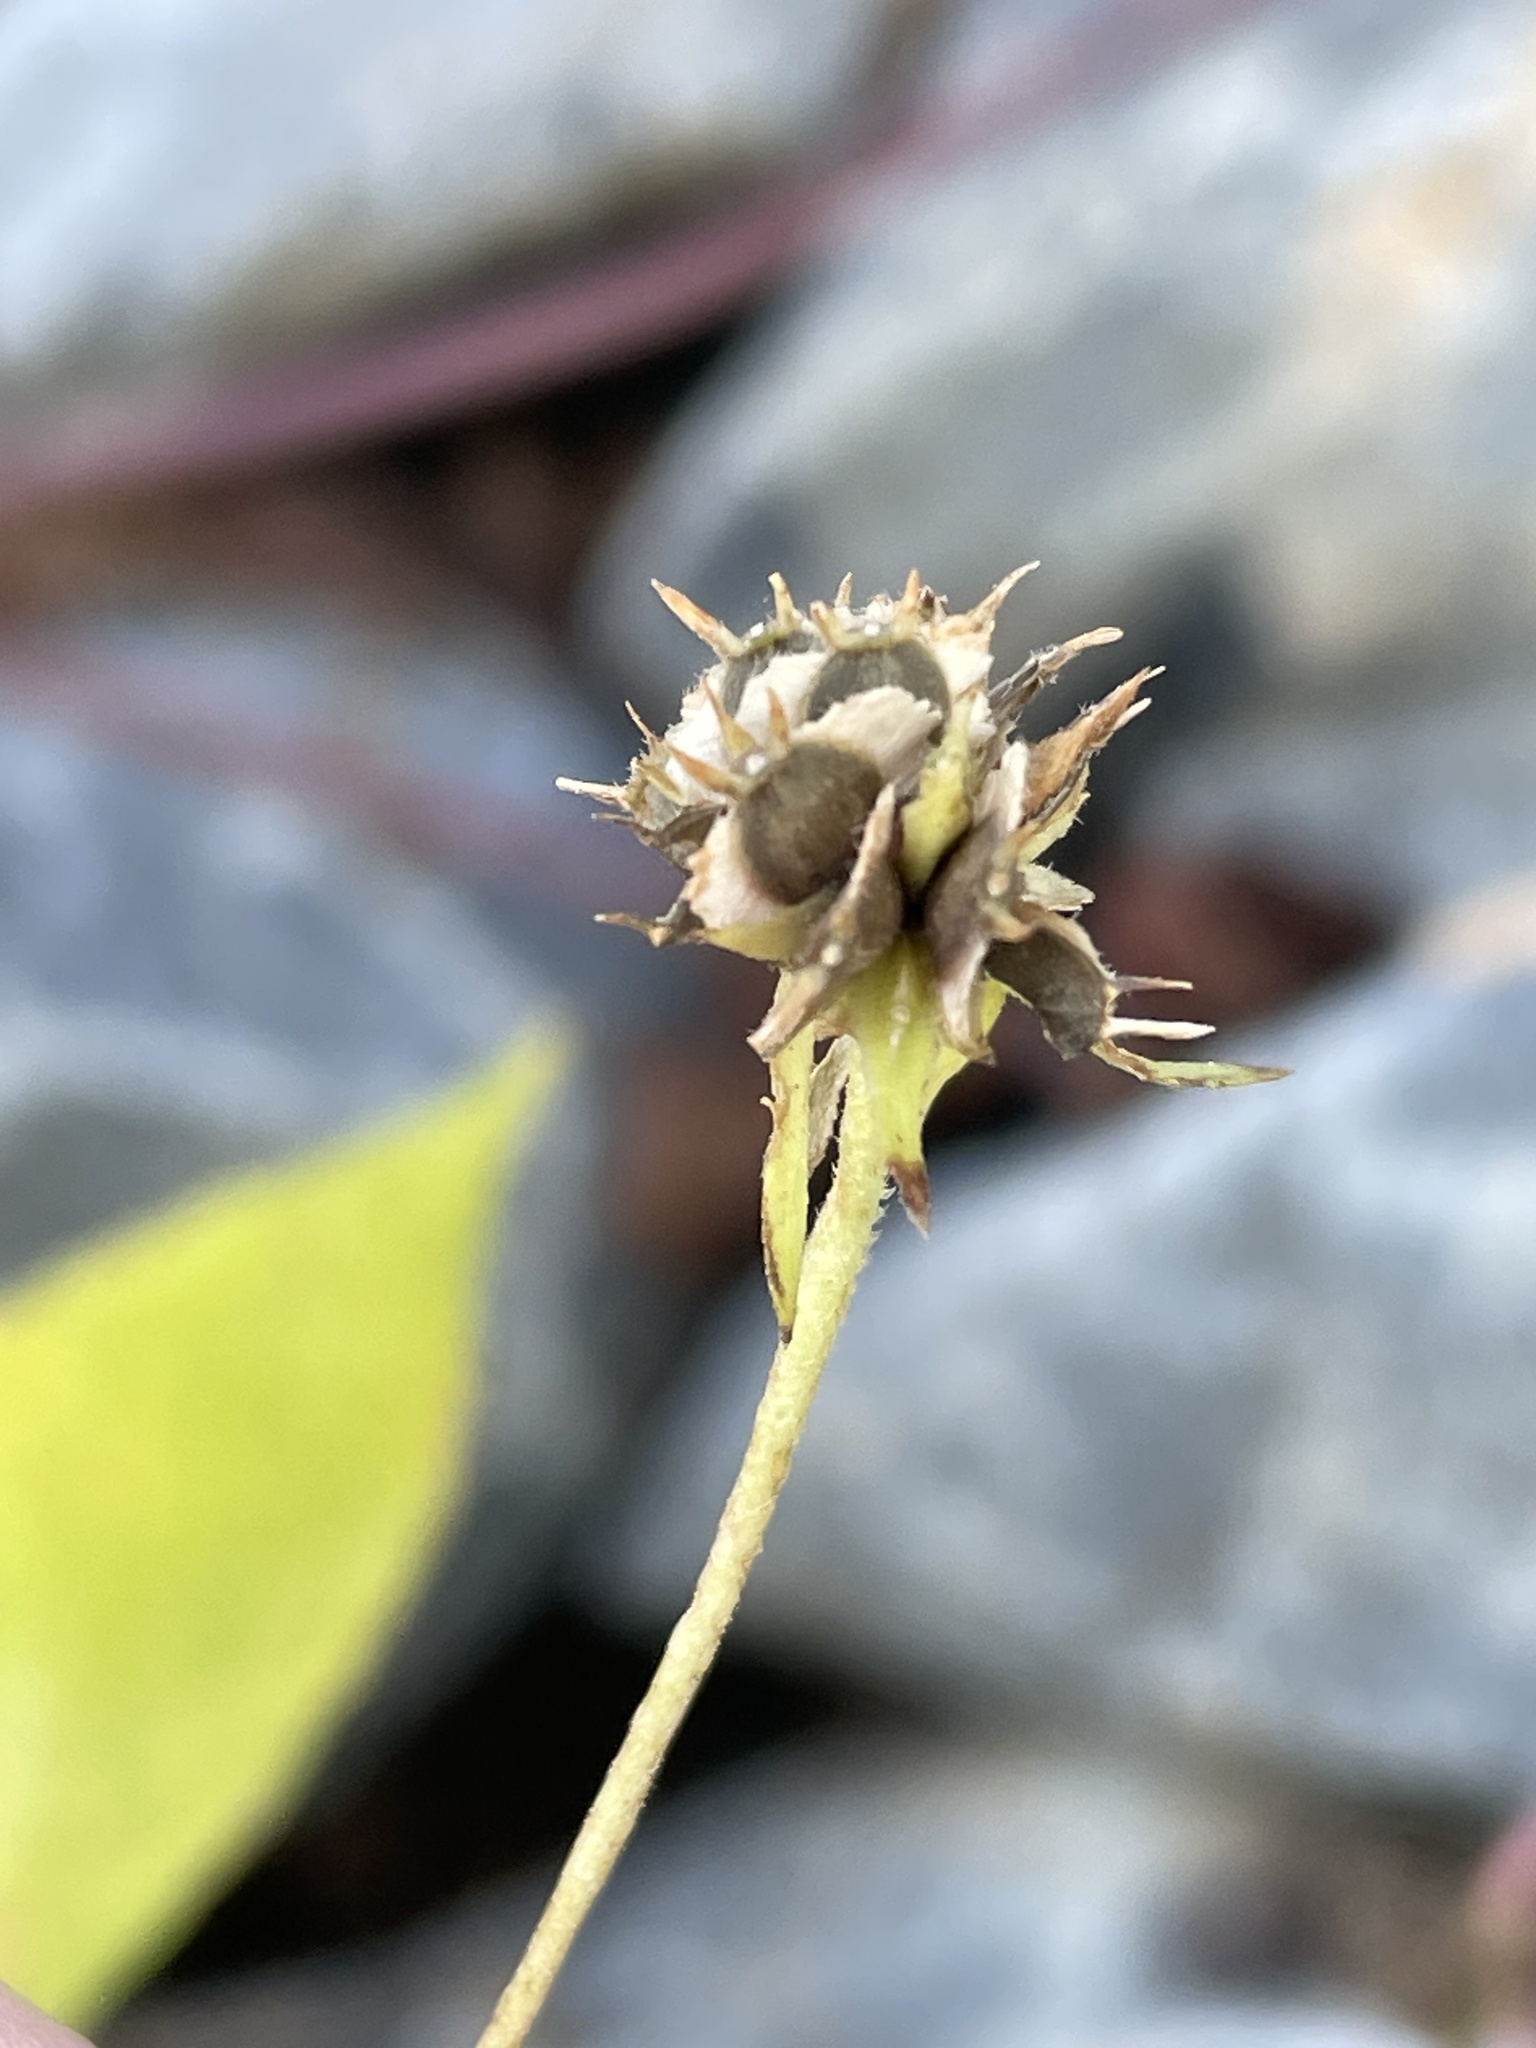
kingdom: Plantae
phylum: Tracheophyta
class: Magnoliopsida
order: Asterales
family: Asteraceae
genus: Verbesina
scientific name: Verbesina alternifolia
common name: Wingstem
